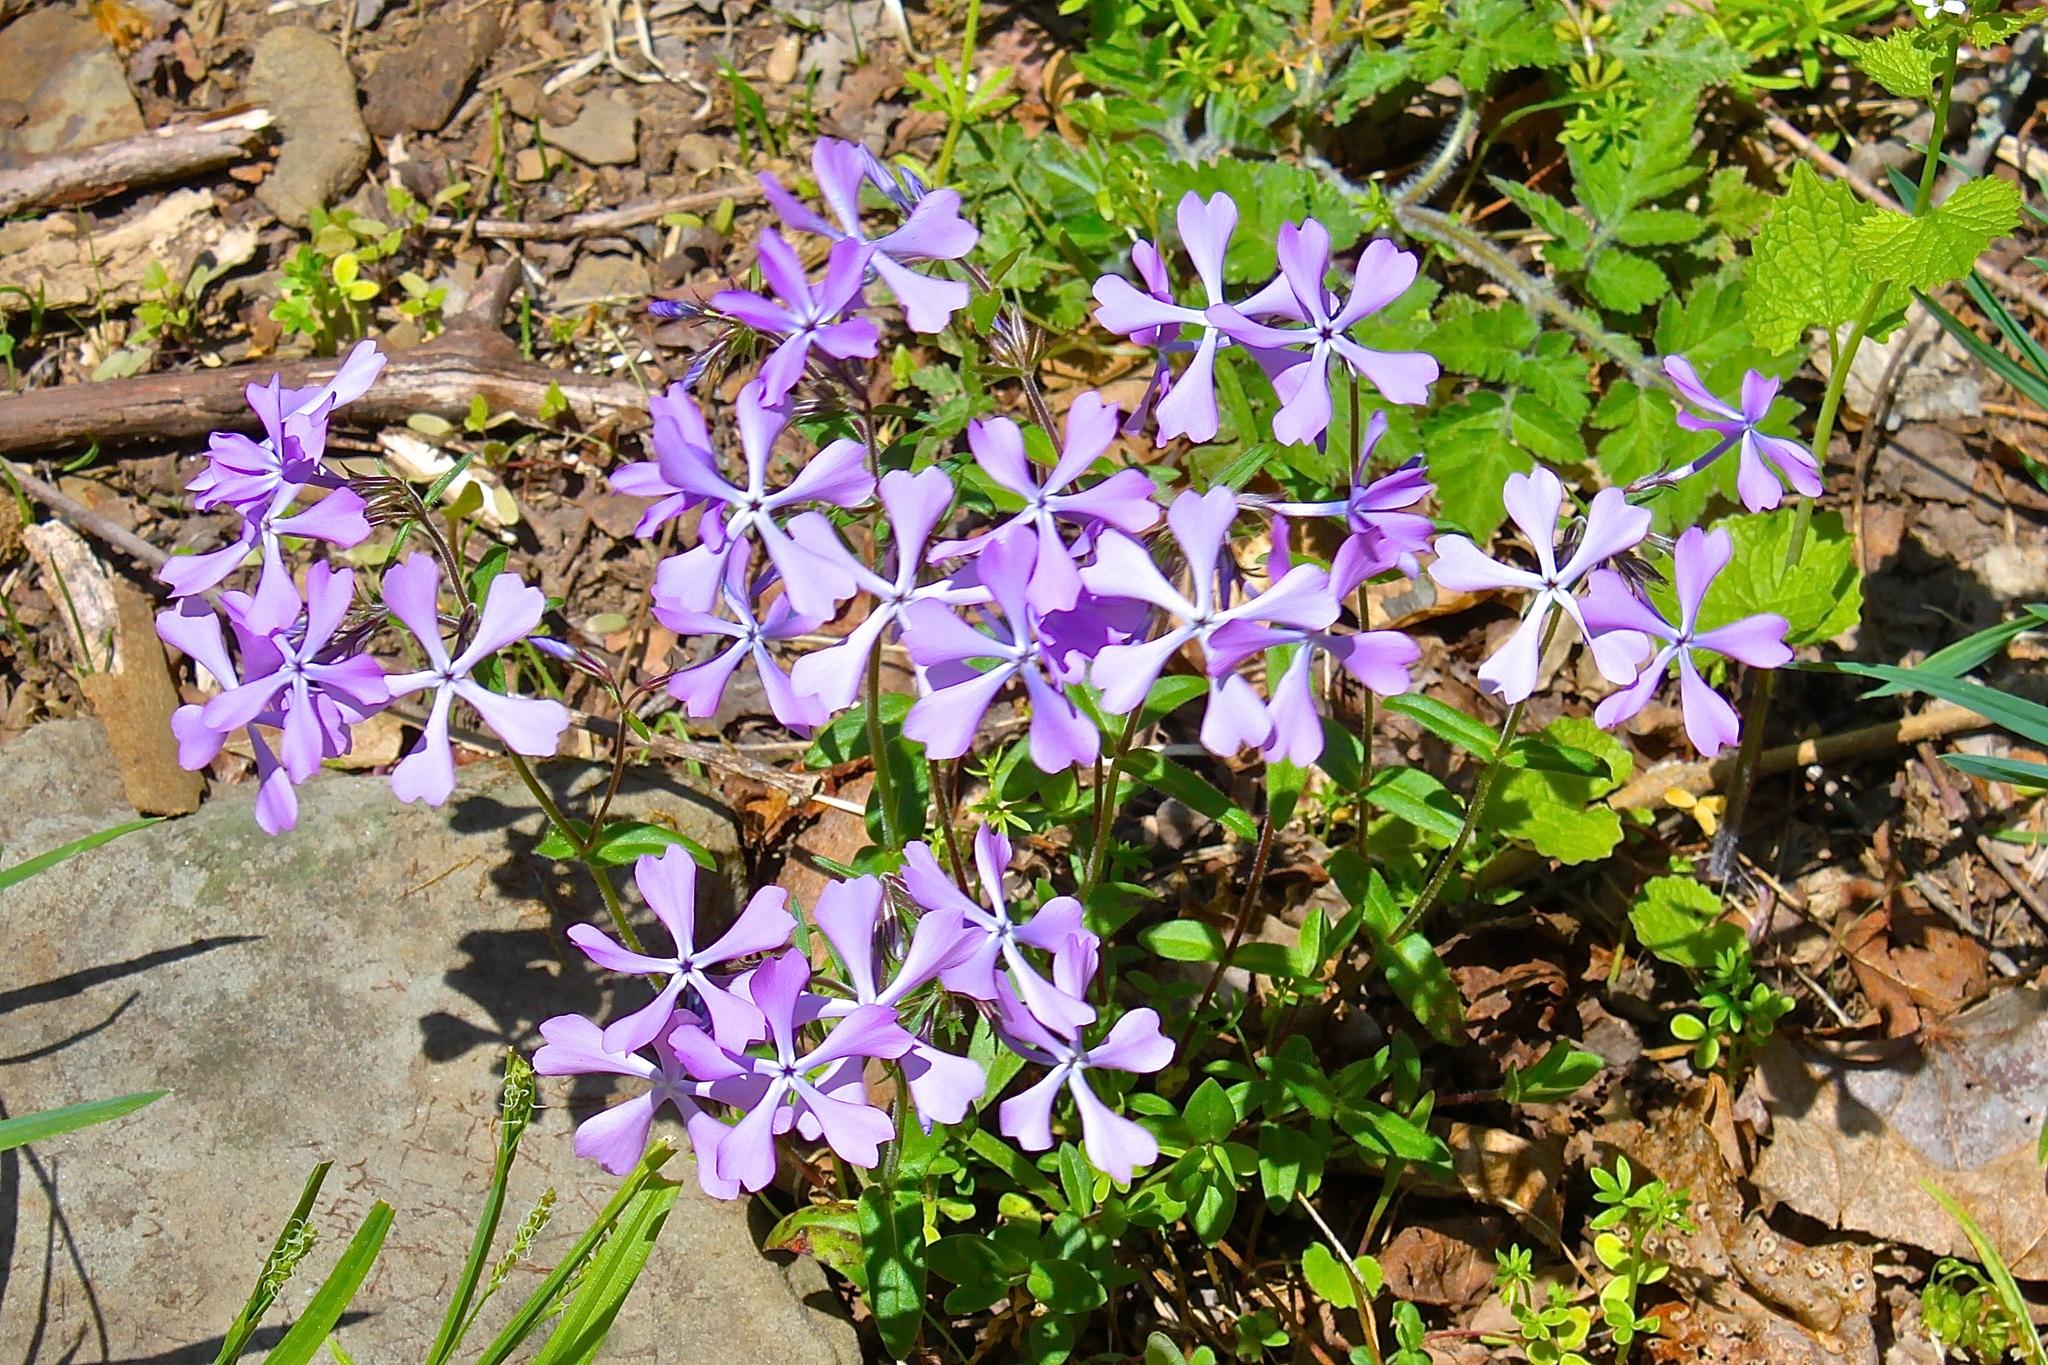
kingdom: Plantae
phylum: Tracheophyta
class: Magnoliopsida
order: Ericales
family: Polemoniaceae
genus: Phlox
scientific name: Phlox divaricata
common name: Blue phlox
